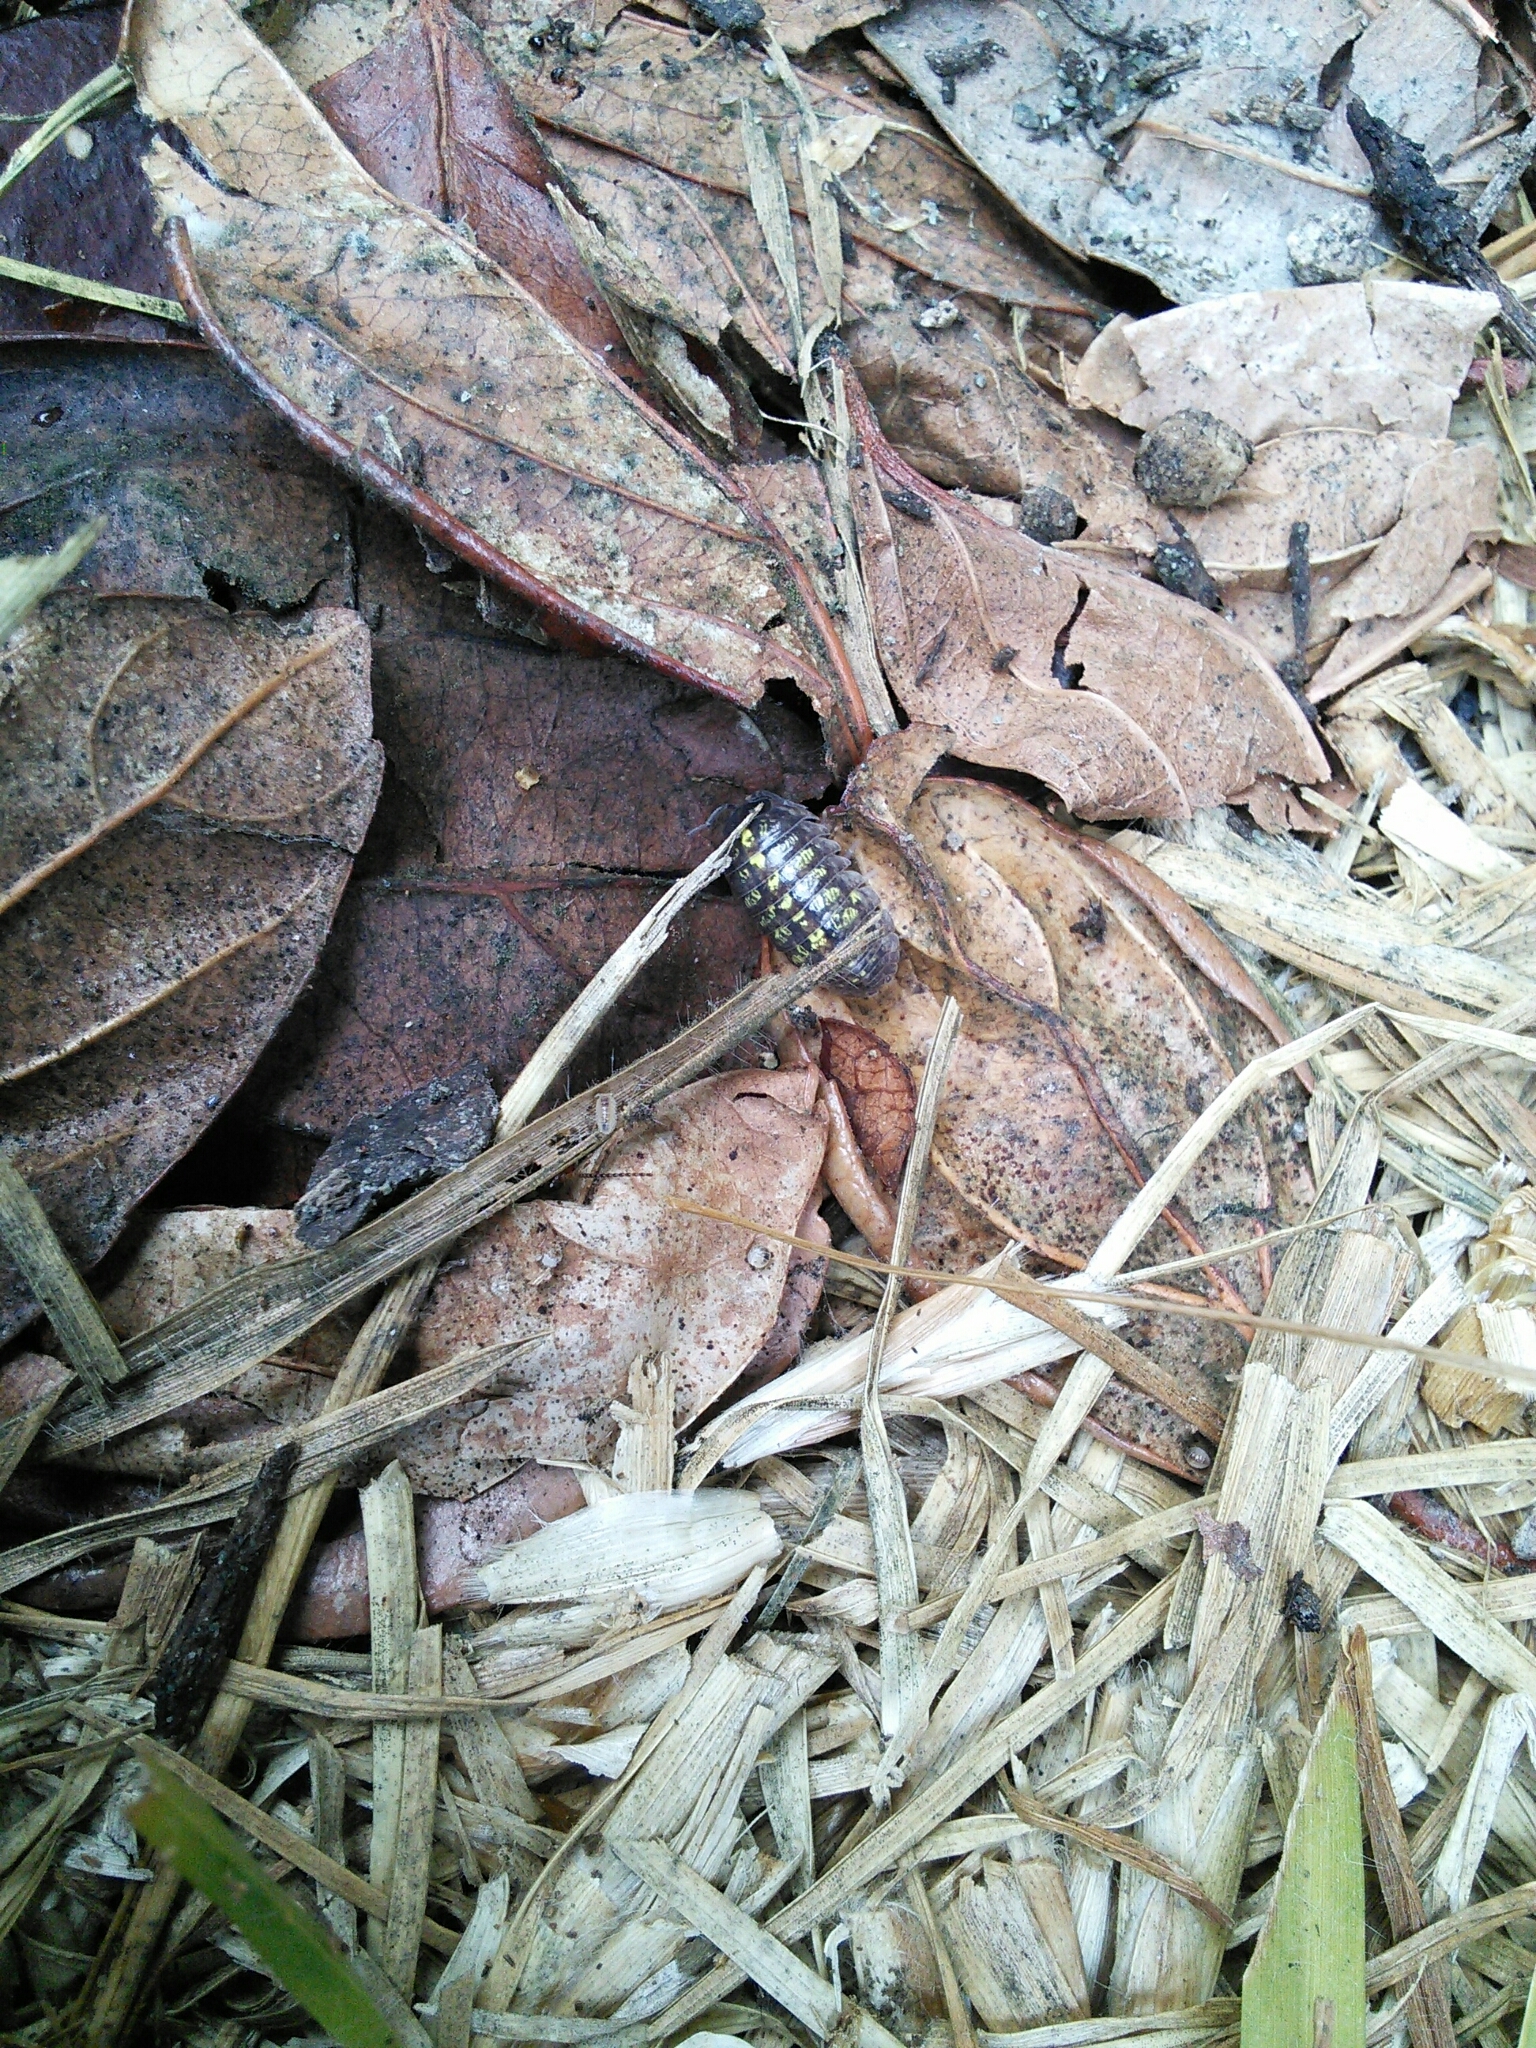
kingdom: Animalia
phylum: Arthropoda
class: Malacostraca
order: Isopoda
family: Armadillidiidae
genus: Armadillidium
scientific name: Armadillidium vulgare
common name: Common pill woodlouse
